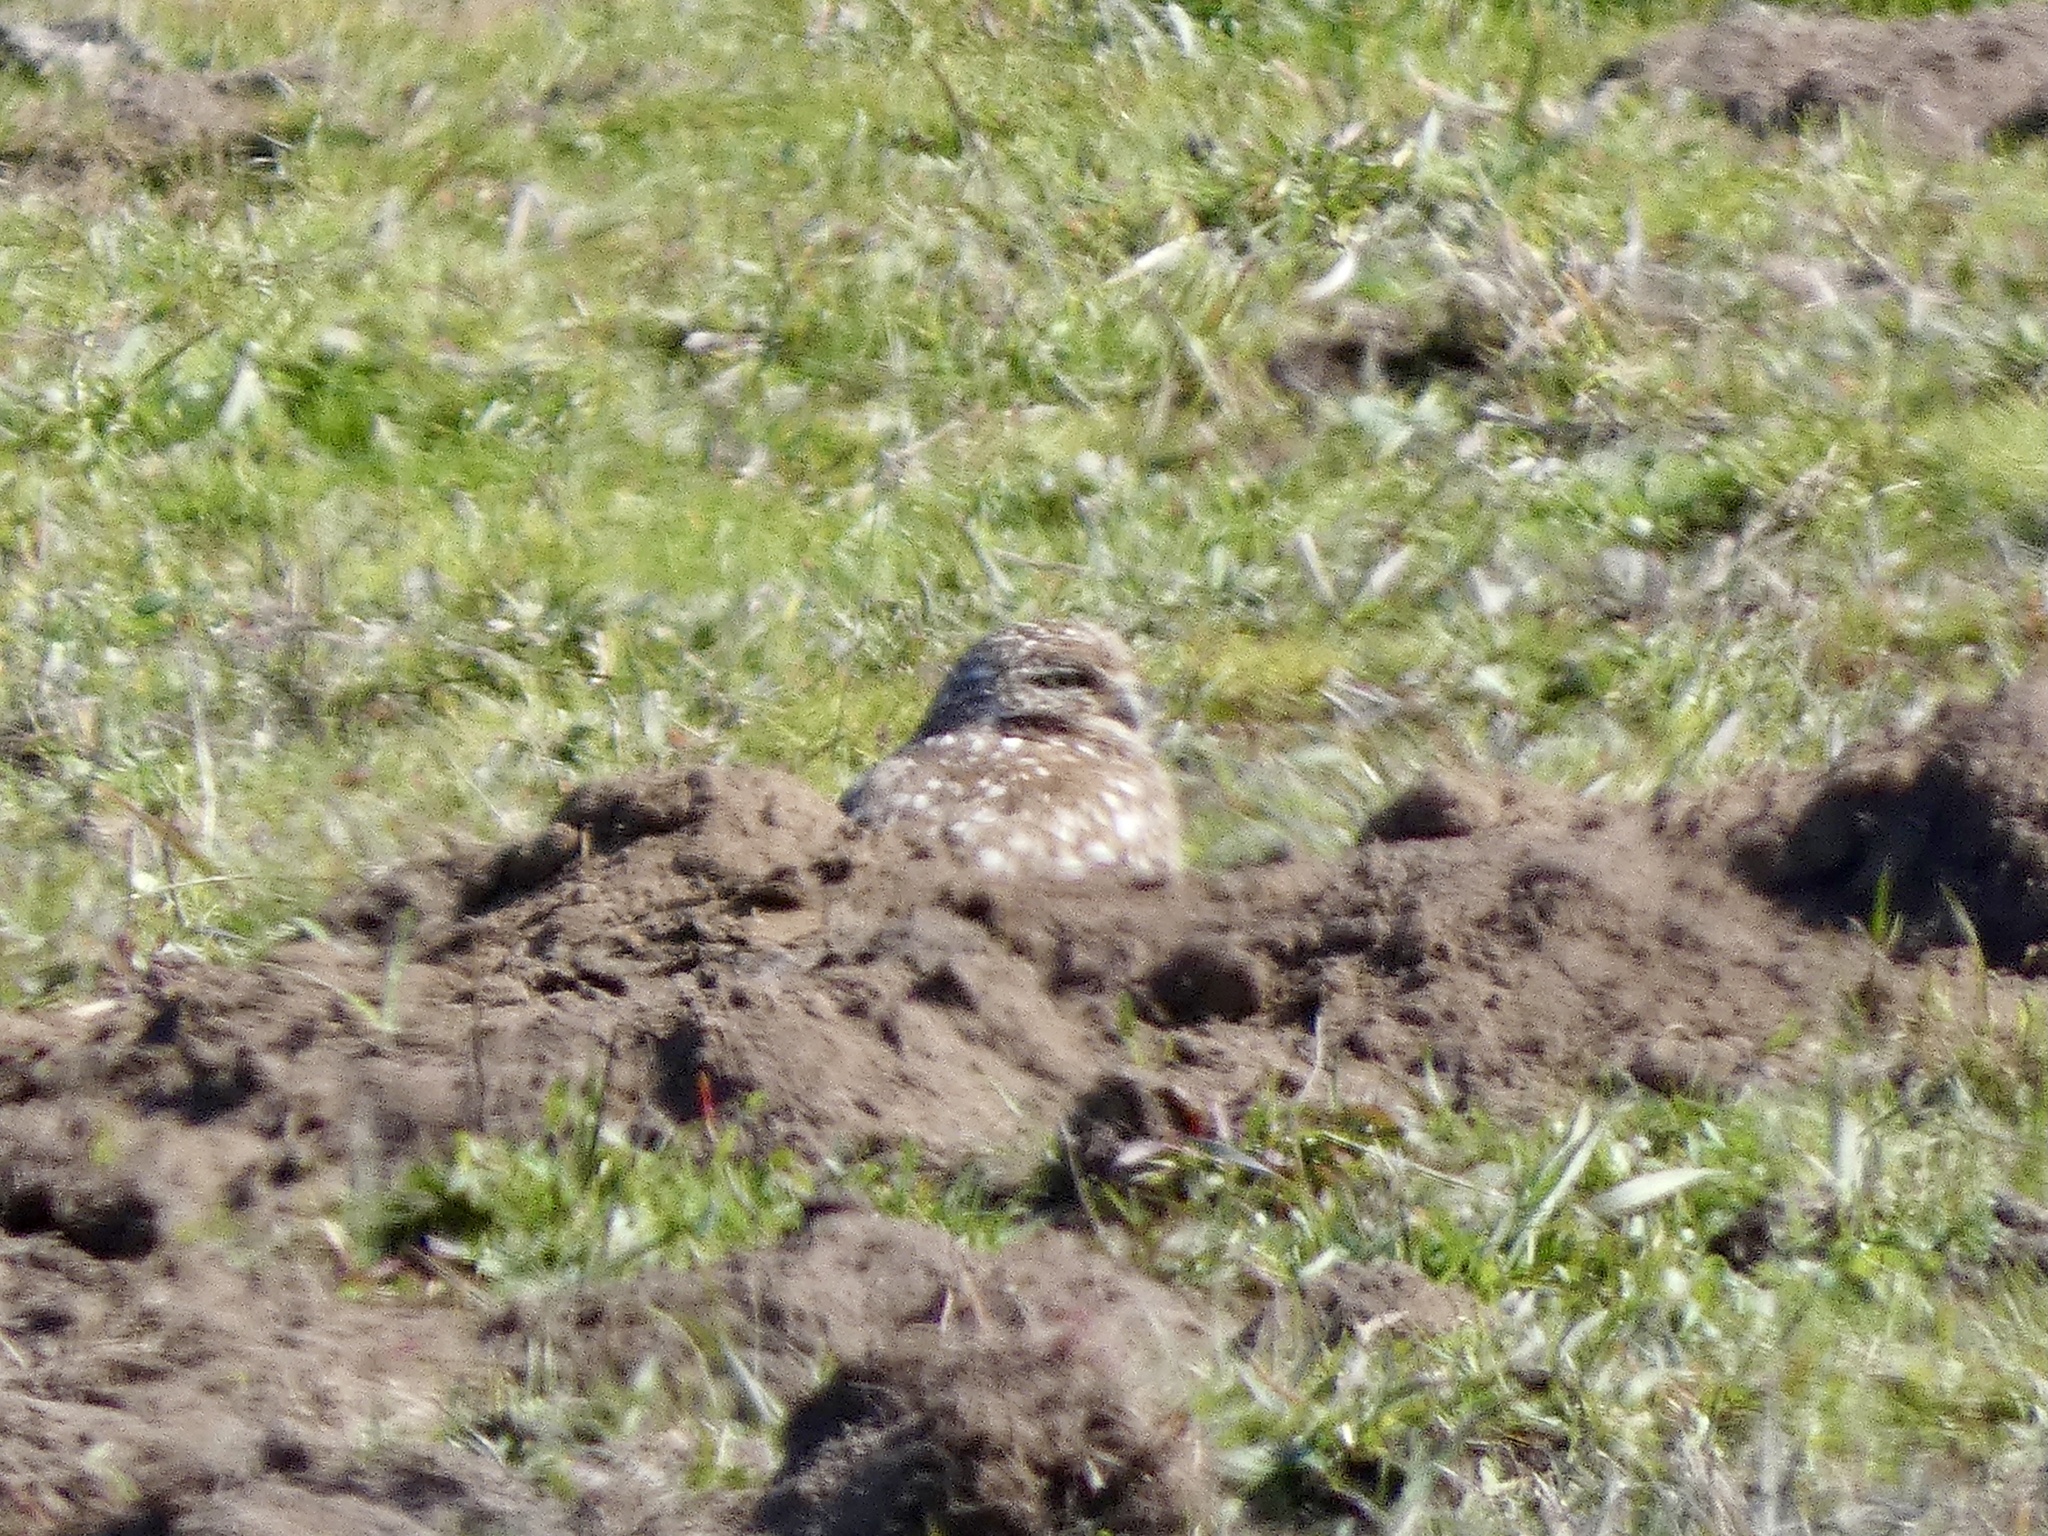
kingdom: Animalia
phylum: Chordata
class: Aves
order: Strigiformes
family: Strigidae
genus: Athene
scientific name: Athene cunicularia
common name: Burrowing owl
